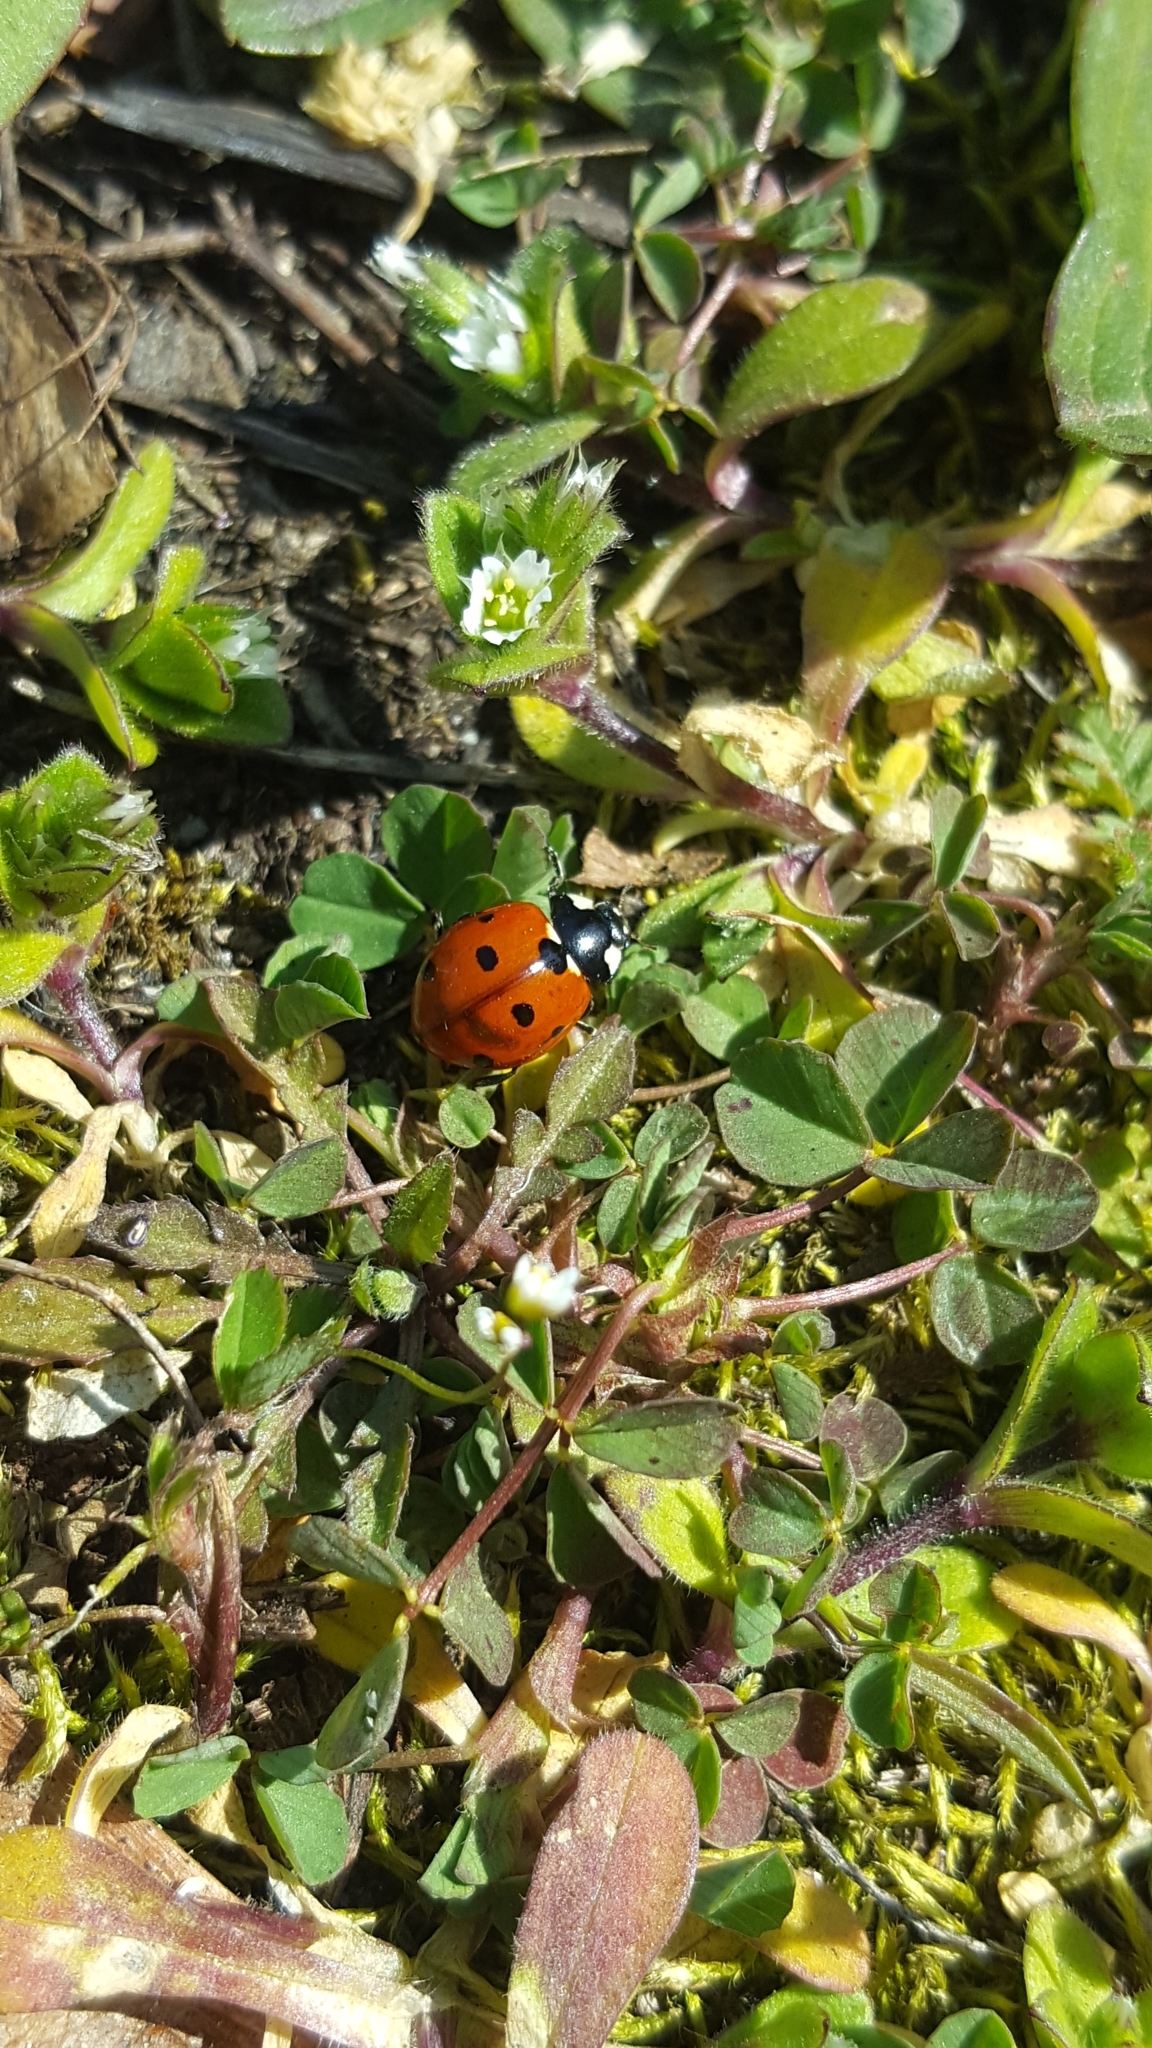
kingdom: Animalia
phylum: Arthropoda
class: Insecta
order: Coleoptera
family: Coccinellidae
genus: Coccinella
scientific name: Coccinella septempunctata
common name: Sevenspotted lady beetle
